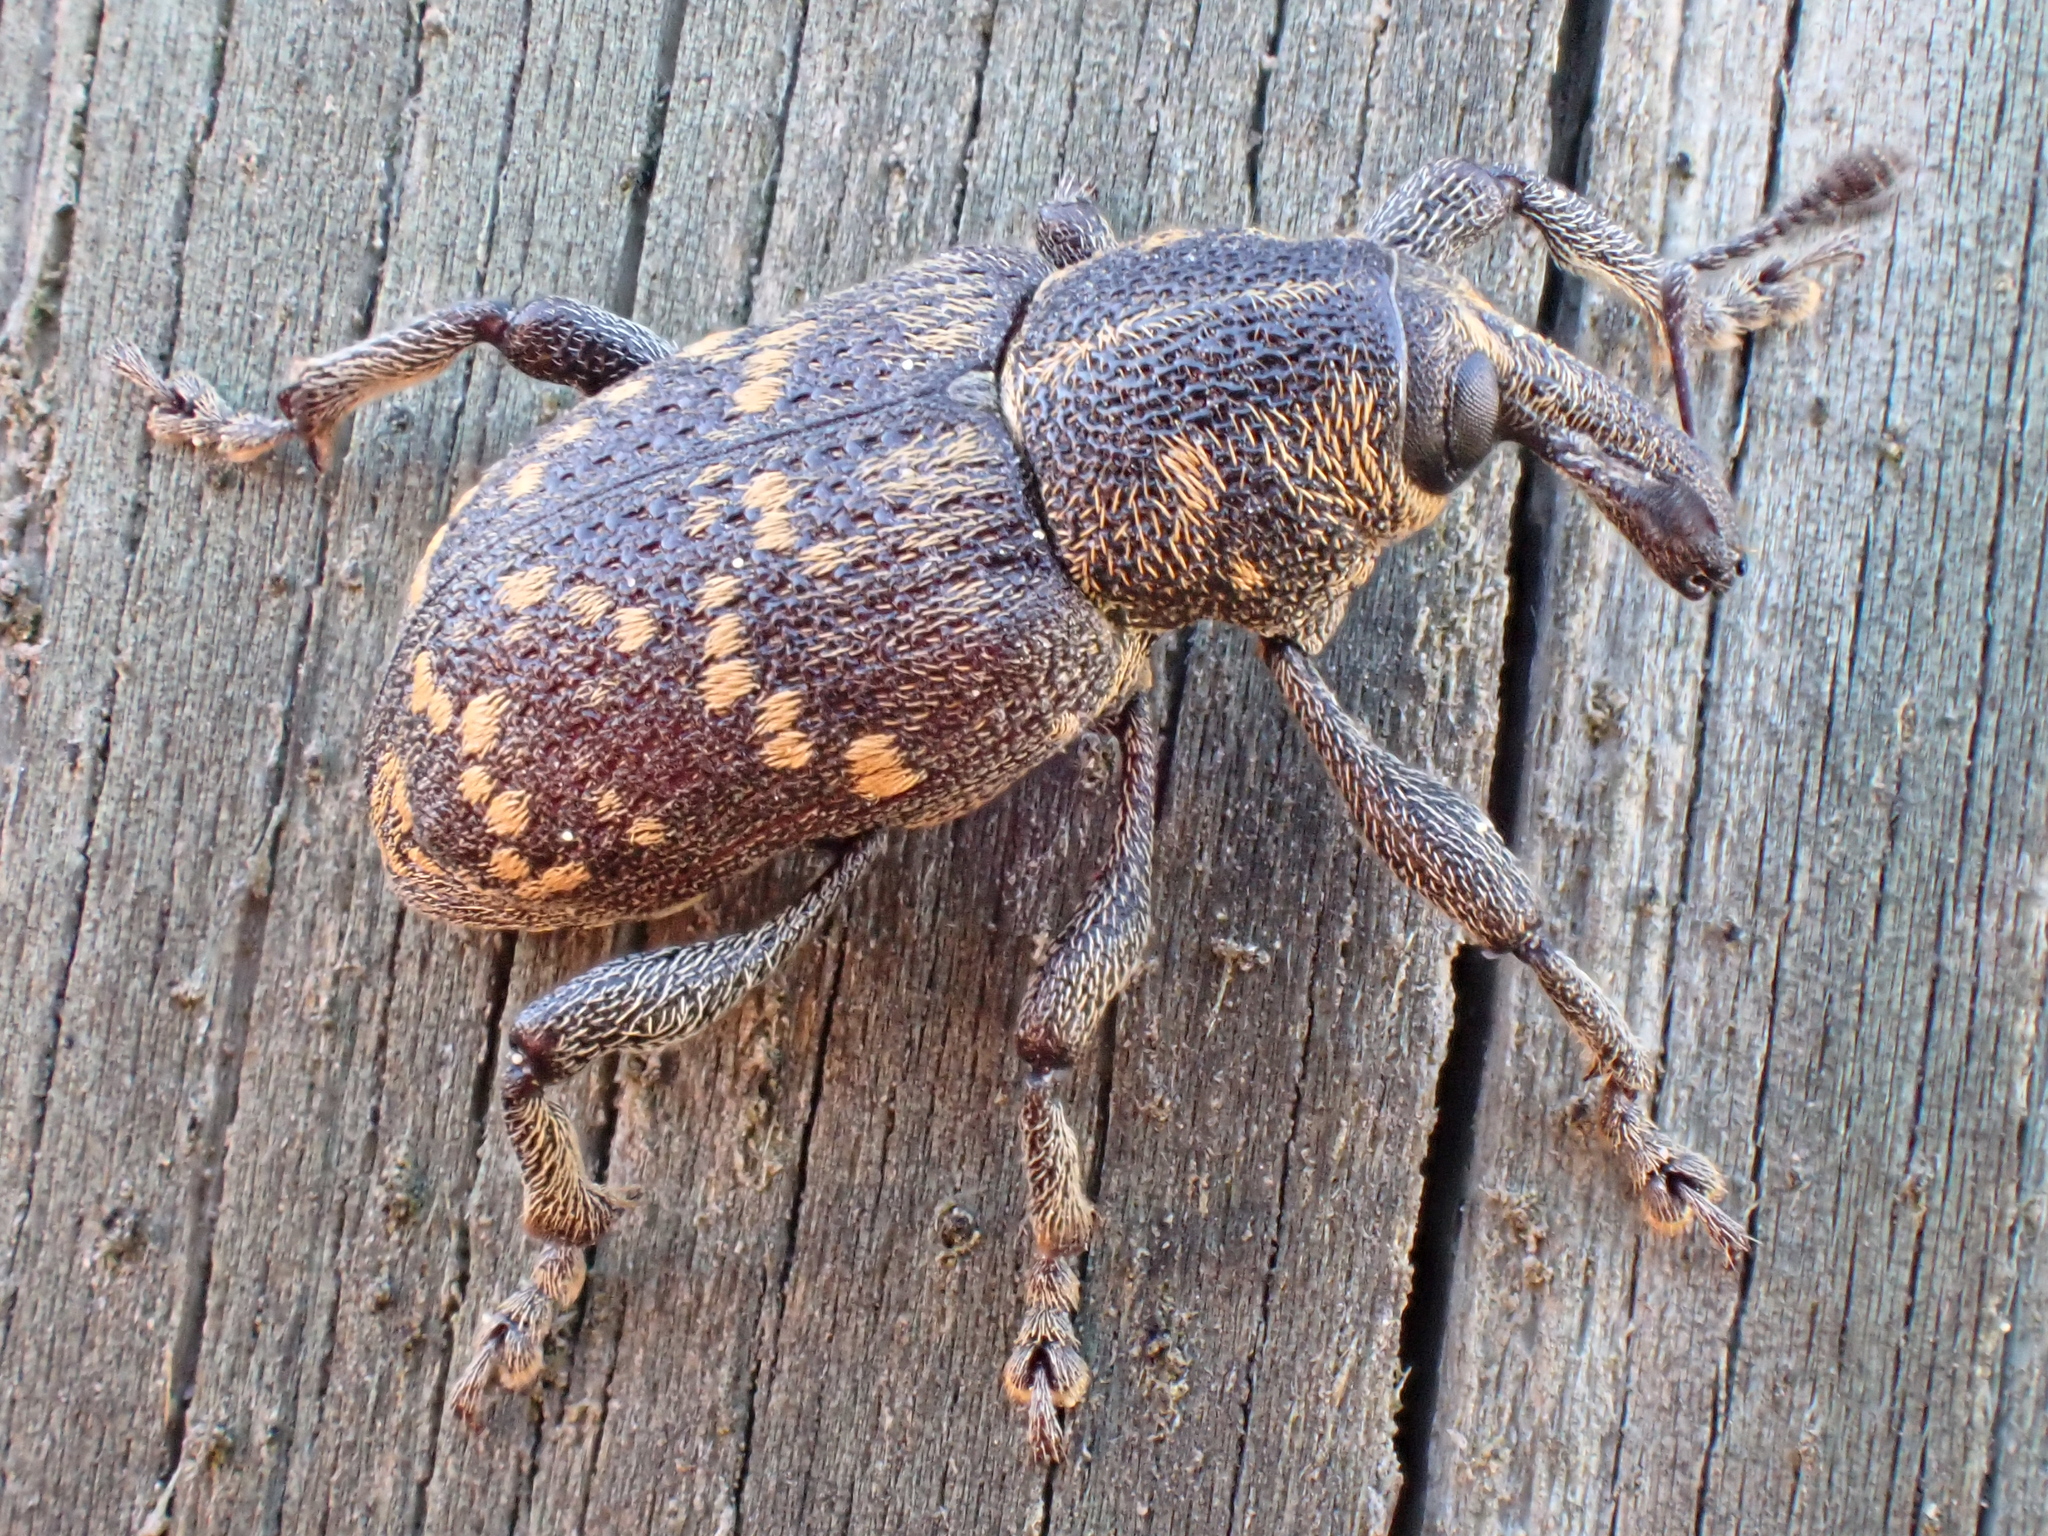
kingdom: Animalia
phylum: Arthropoda
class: Insecta
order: Coleoptera
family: Curculionidae
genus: Hylobius
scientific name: Hylobius abietis
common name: Large pine weevil
